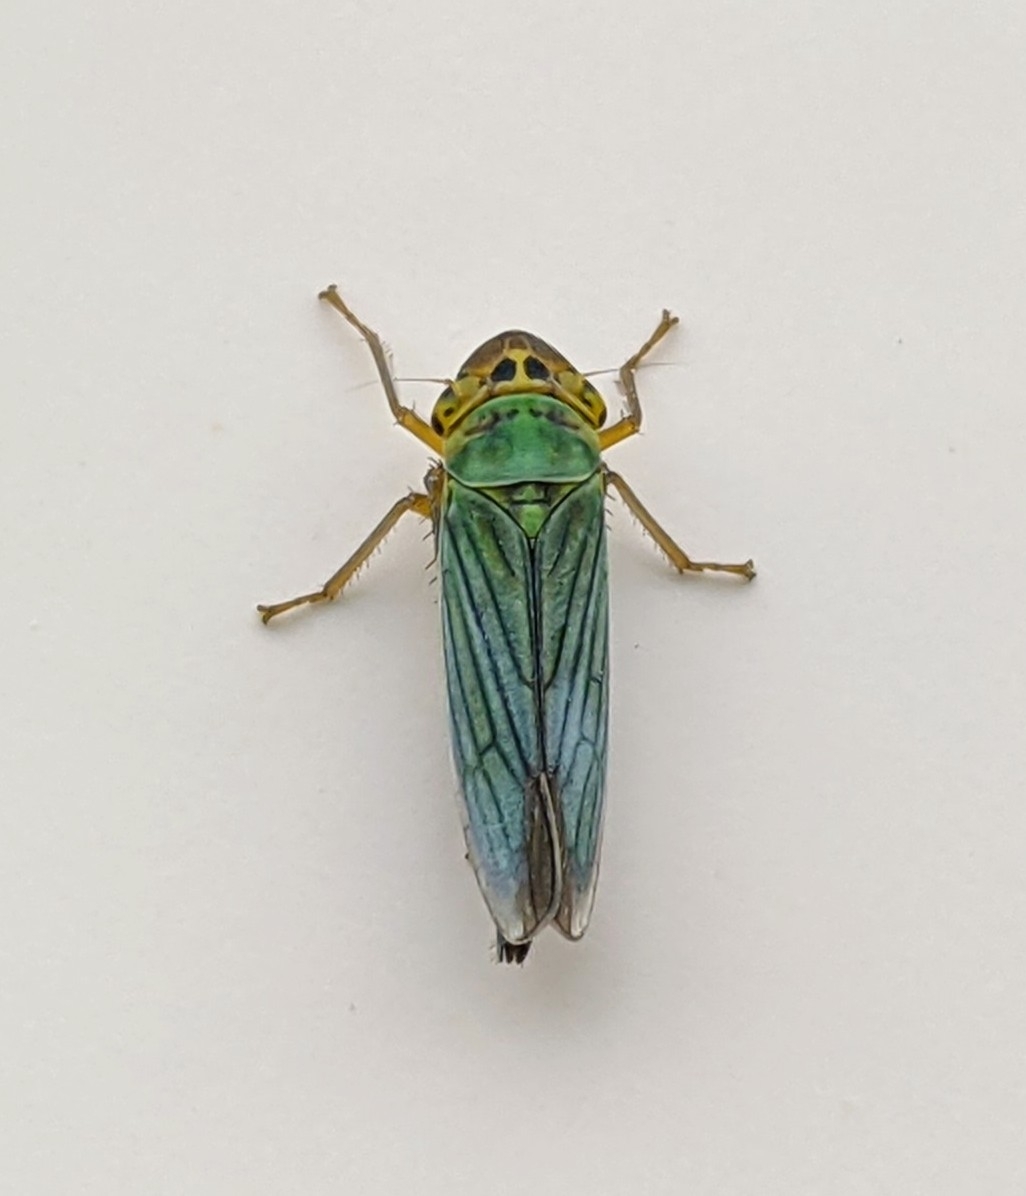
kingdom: Animalia
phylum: Arthropoda
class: Insecta
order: Hemiptera
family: Cicadellidae
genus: Cicadella
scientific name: Cicadella viridis
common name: Leafhopper
